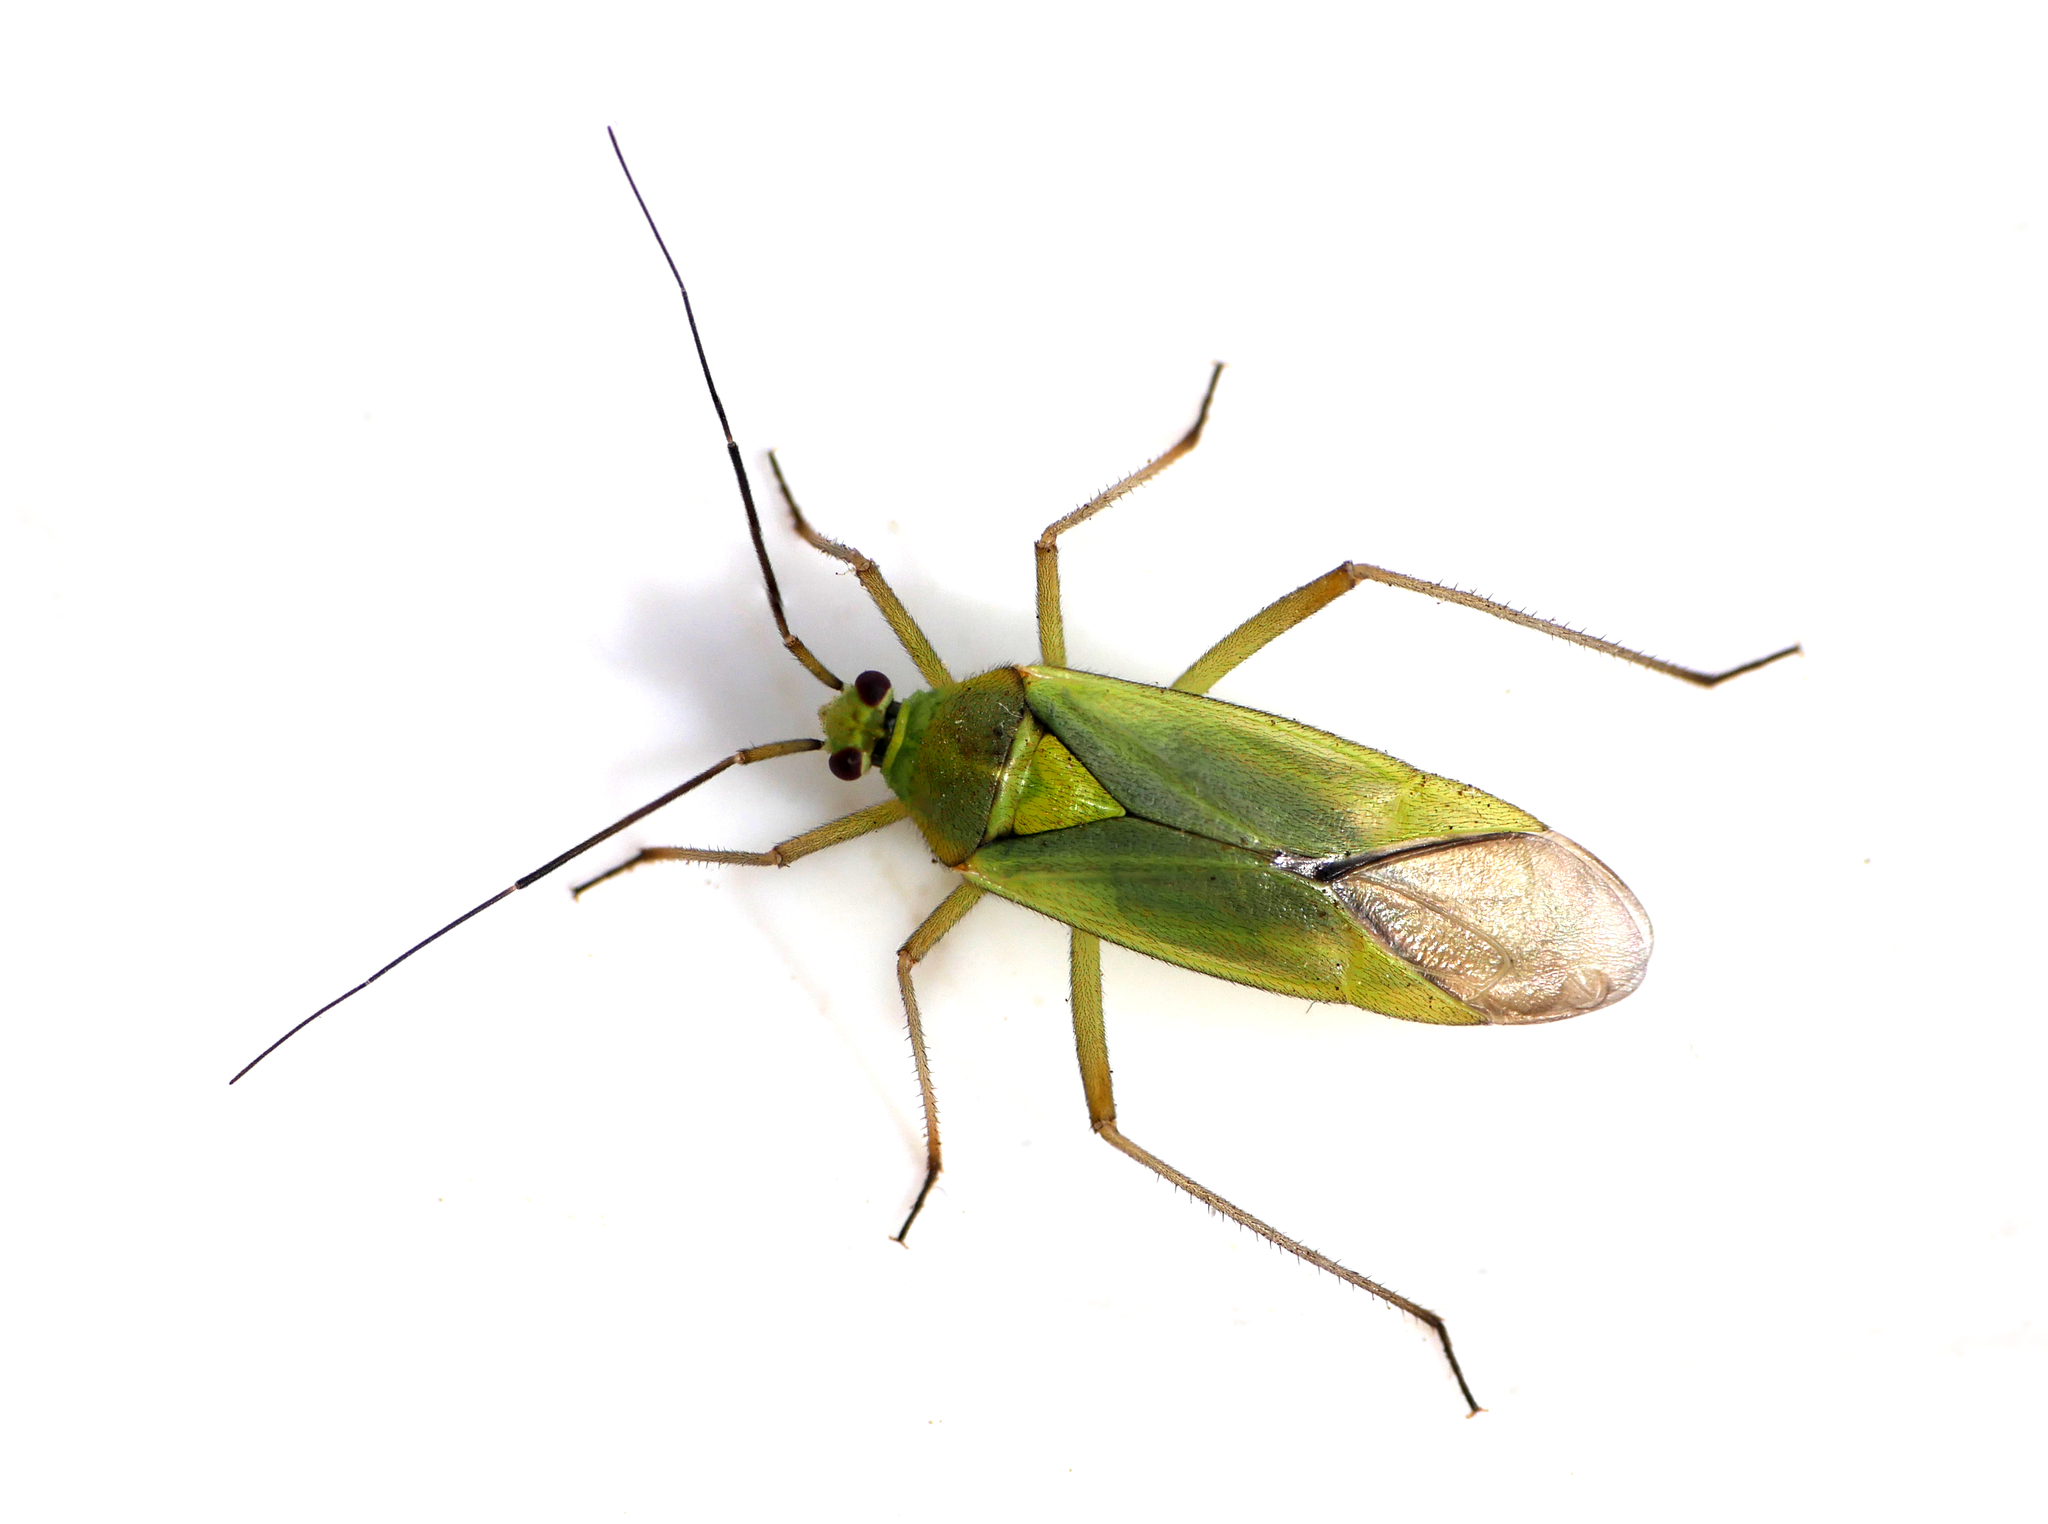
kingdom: Animalia
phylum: Arthropoda
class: Insecta
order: Hemiptera
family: Miridae
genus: Calocoris
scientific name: Calocoris alpestris
